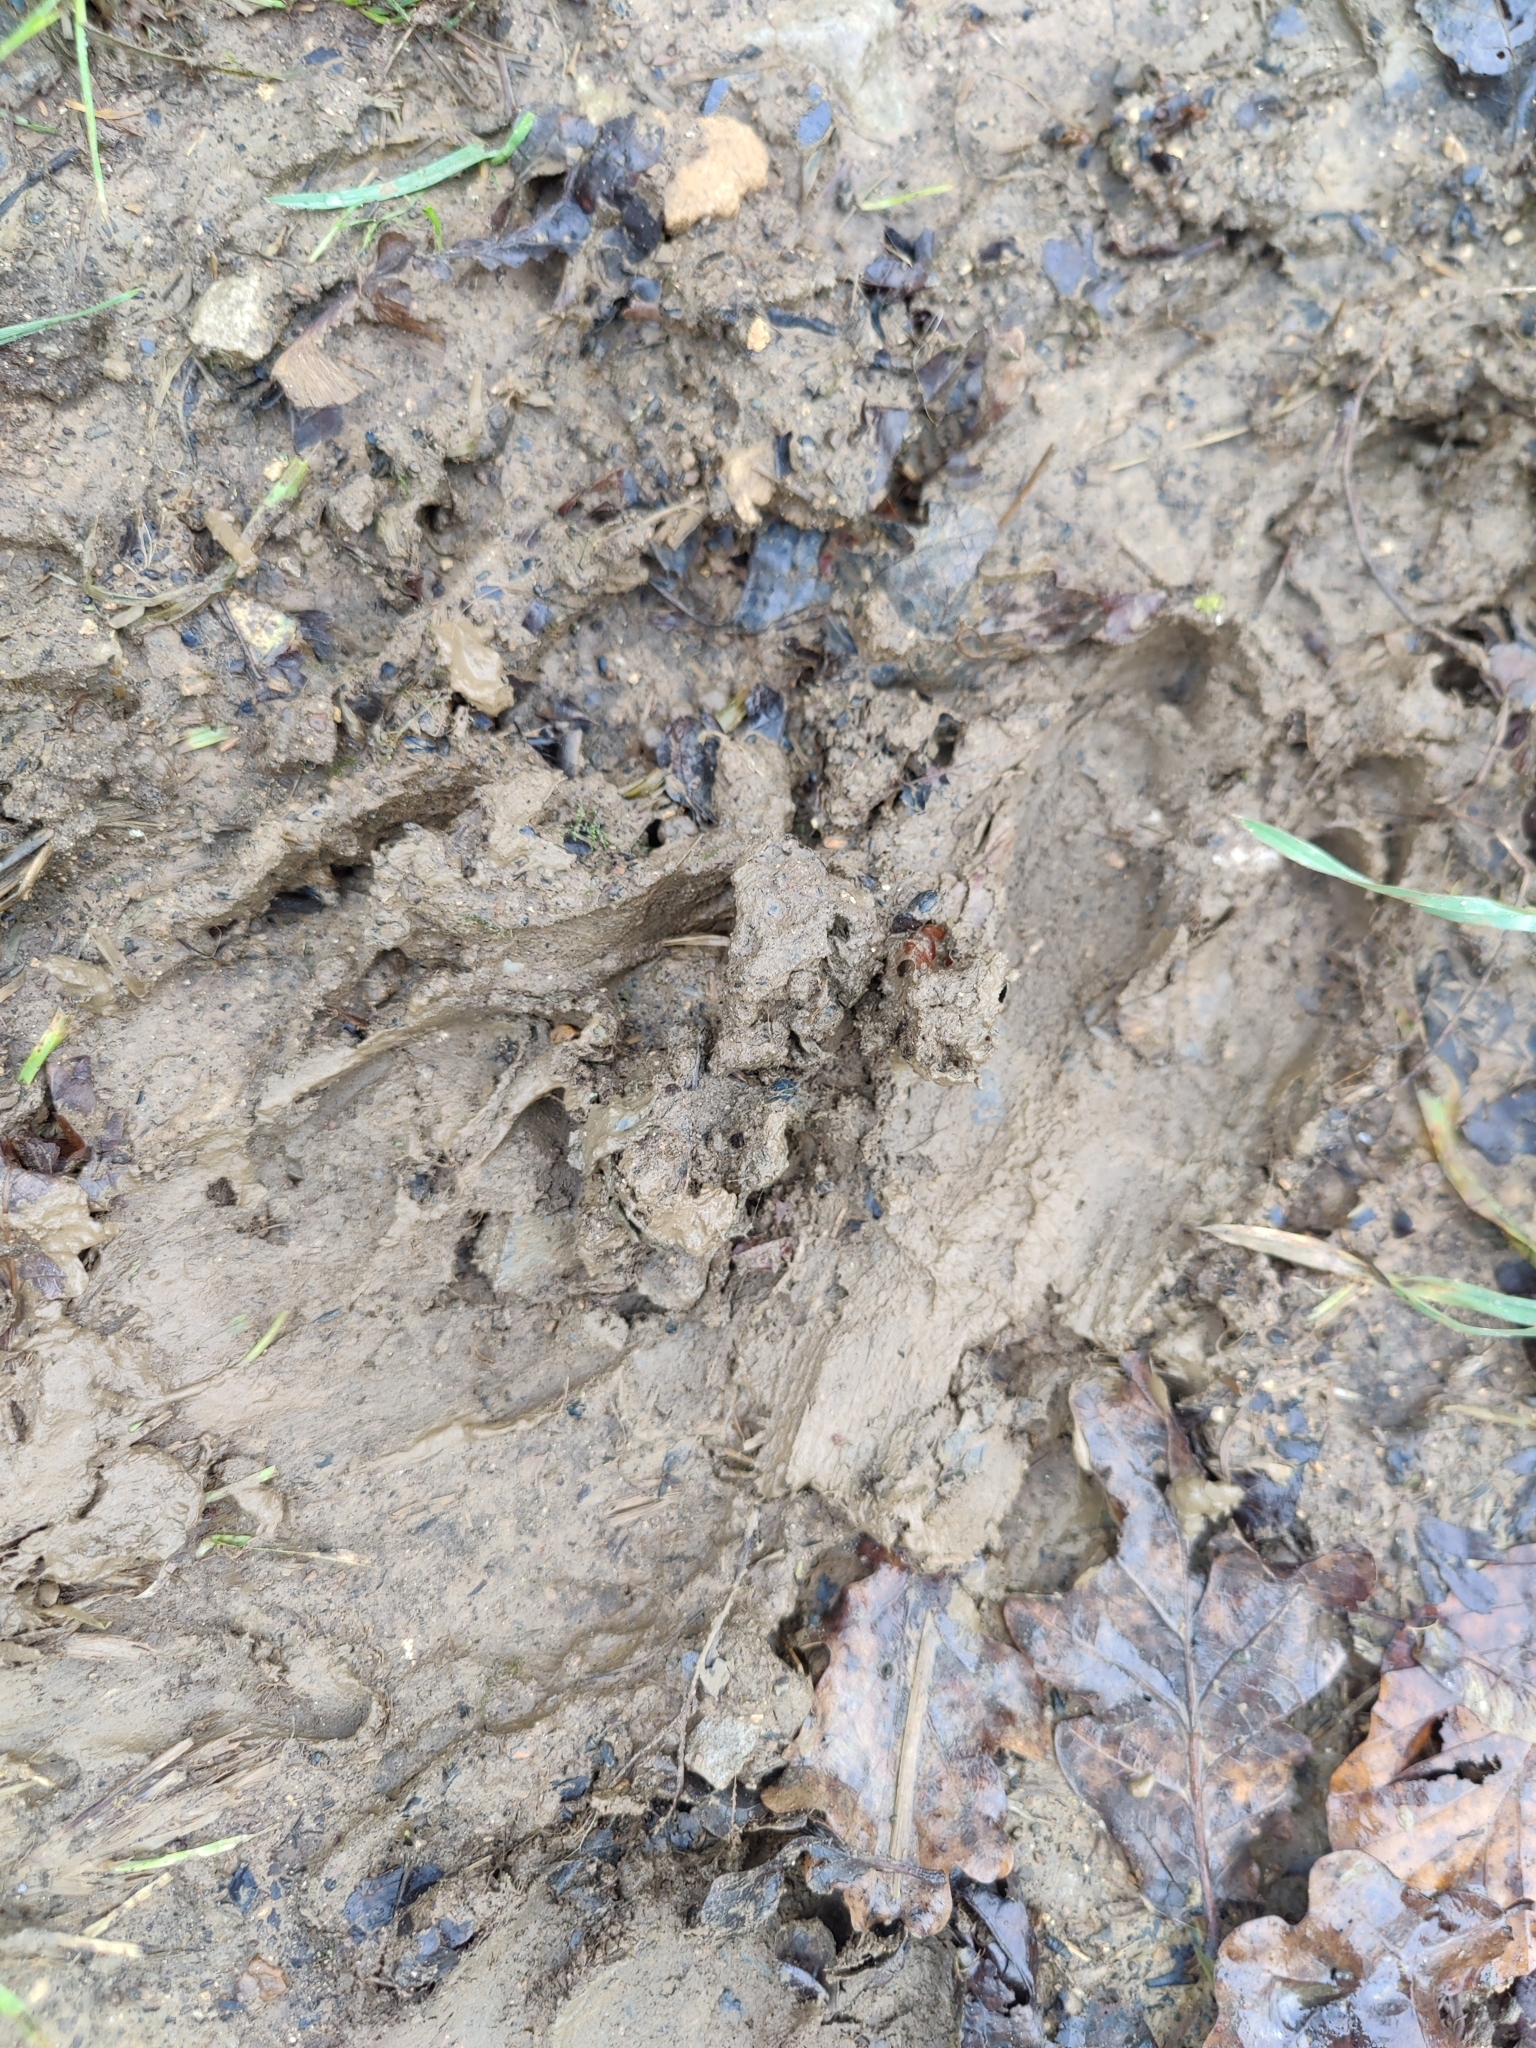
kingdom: Animalia
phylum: Chordata
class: Mammalia
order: Artiodactyla
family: Suidae
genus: Sus
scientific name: Sus scrofa
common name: Wild boar
